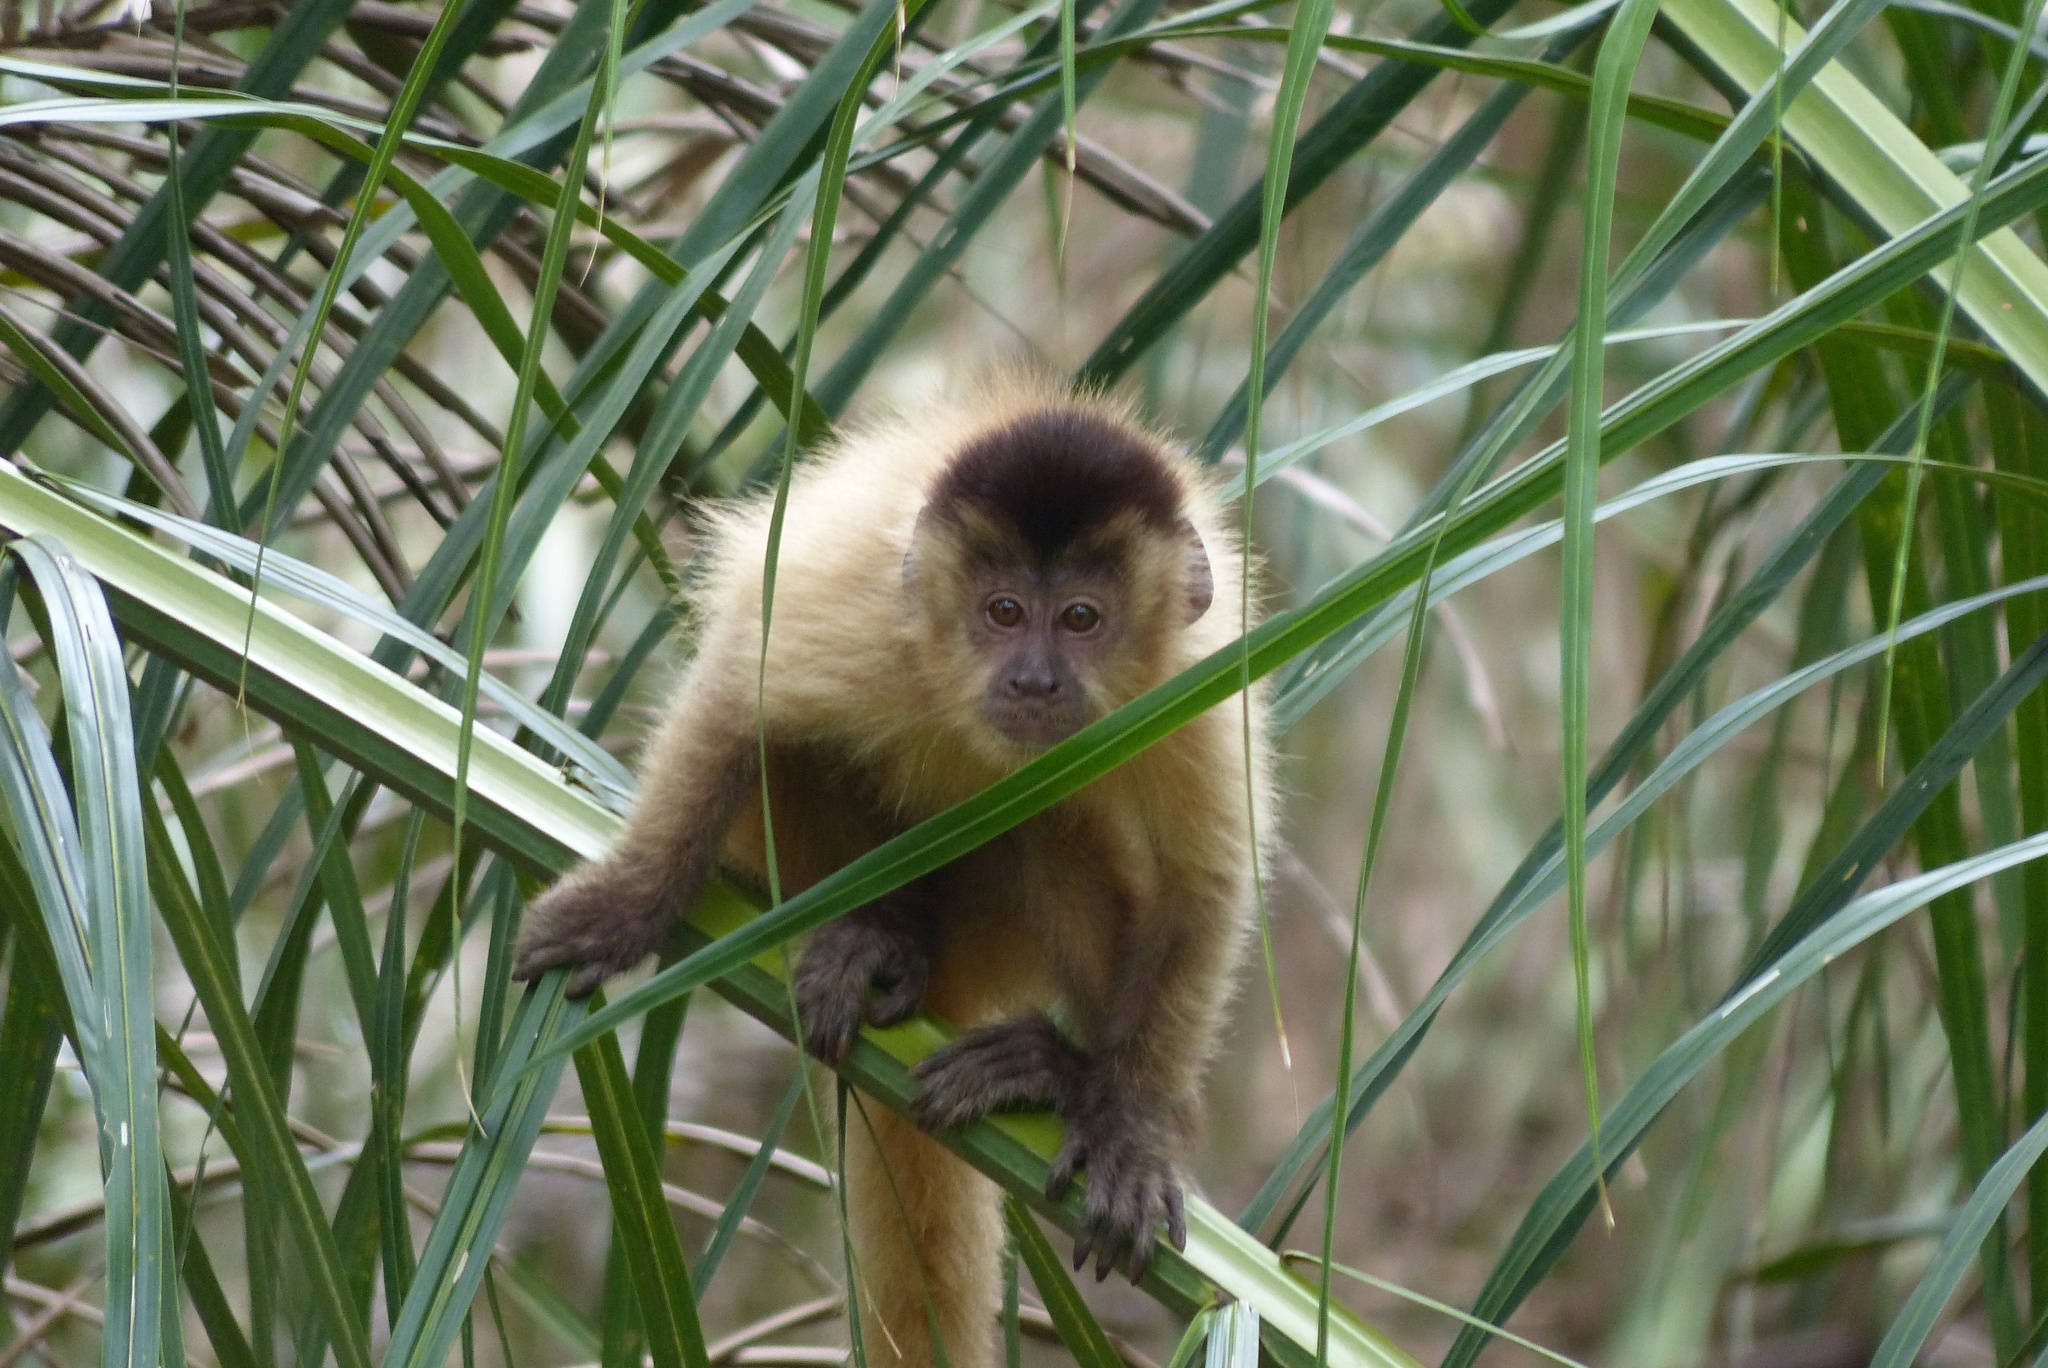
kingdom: Animalia
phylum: Chordata
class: Mammalia
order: Primates
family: Cebidae
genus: Sapajus
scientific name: Sapajus cay
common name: Hooded capuchin
